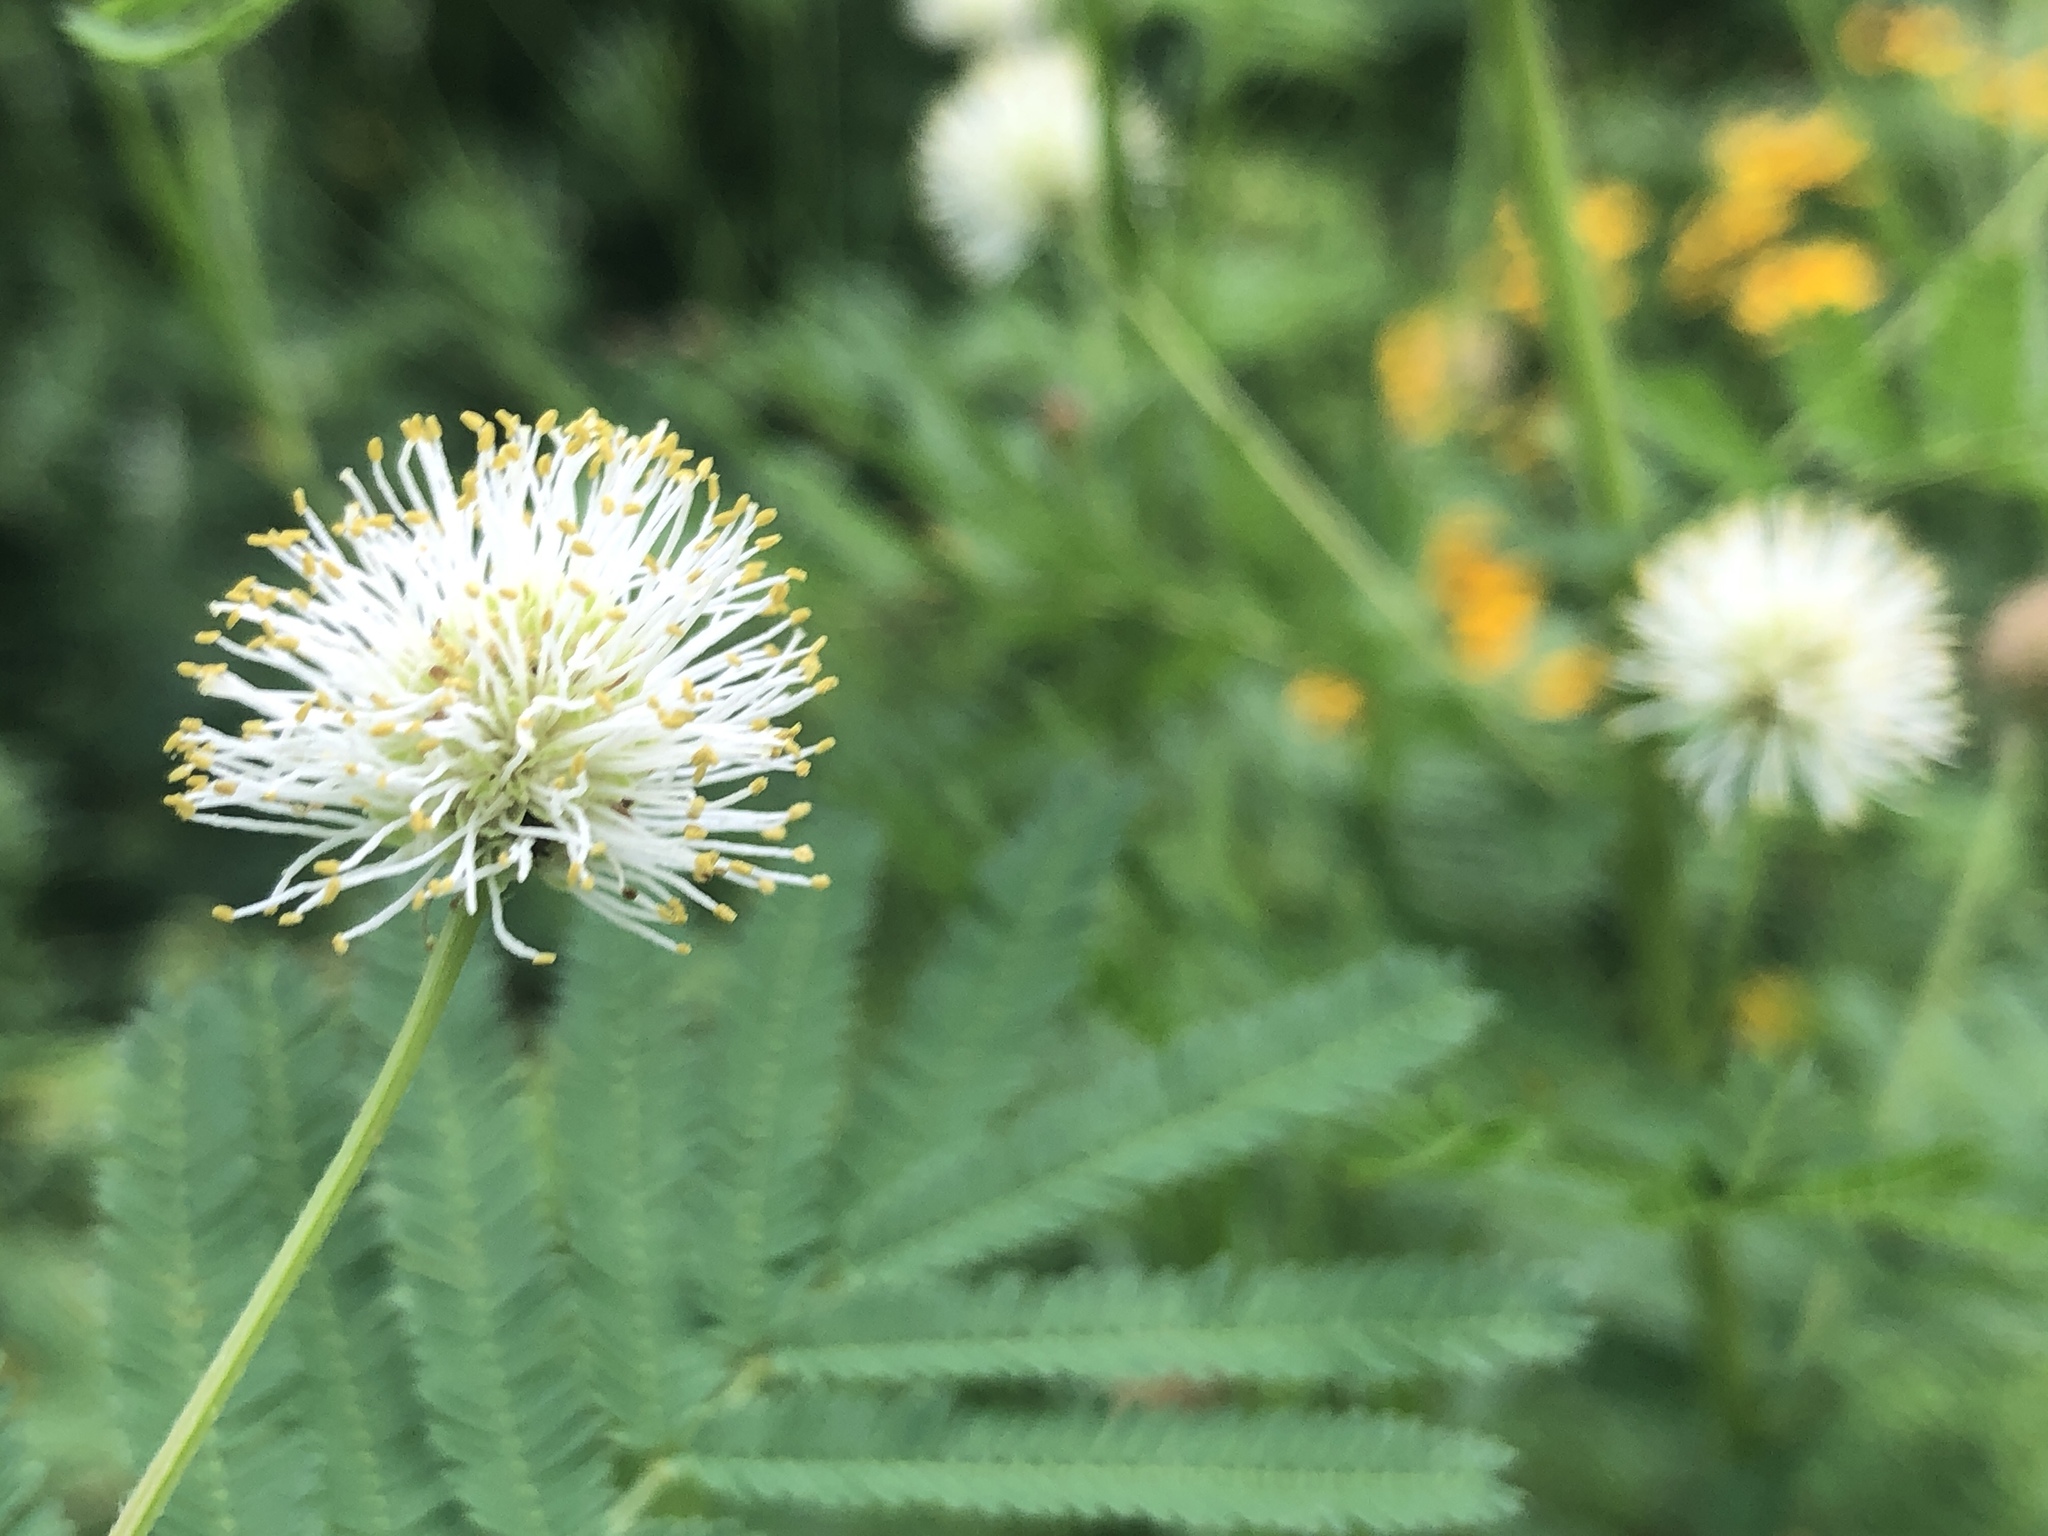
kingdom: Plantae
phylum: Tracheophyta
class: Magnoliopsida
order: Fabales
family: Fabaceae
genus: Desmanthus
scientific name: Desmanthus illinoensis
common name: Illinois bundle-flower
